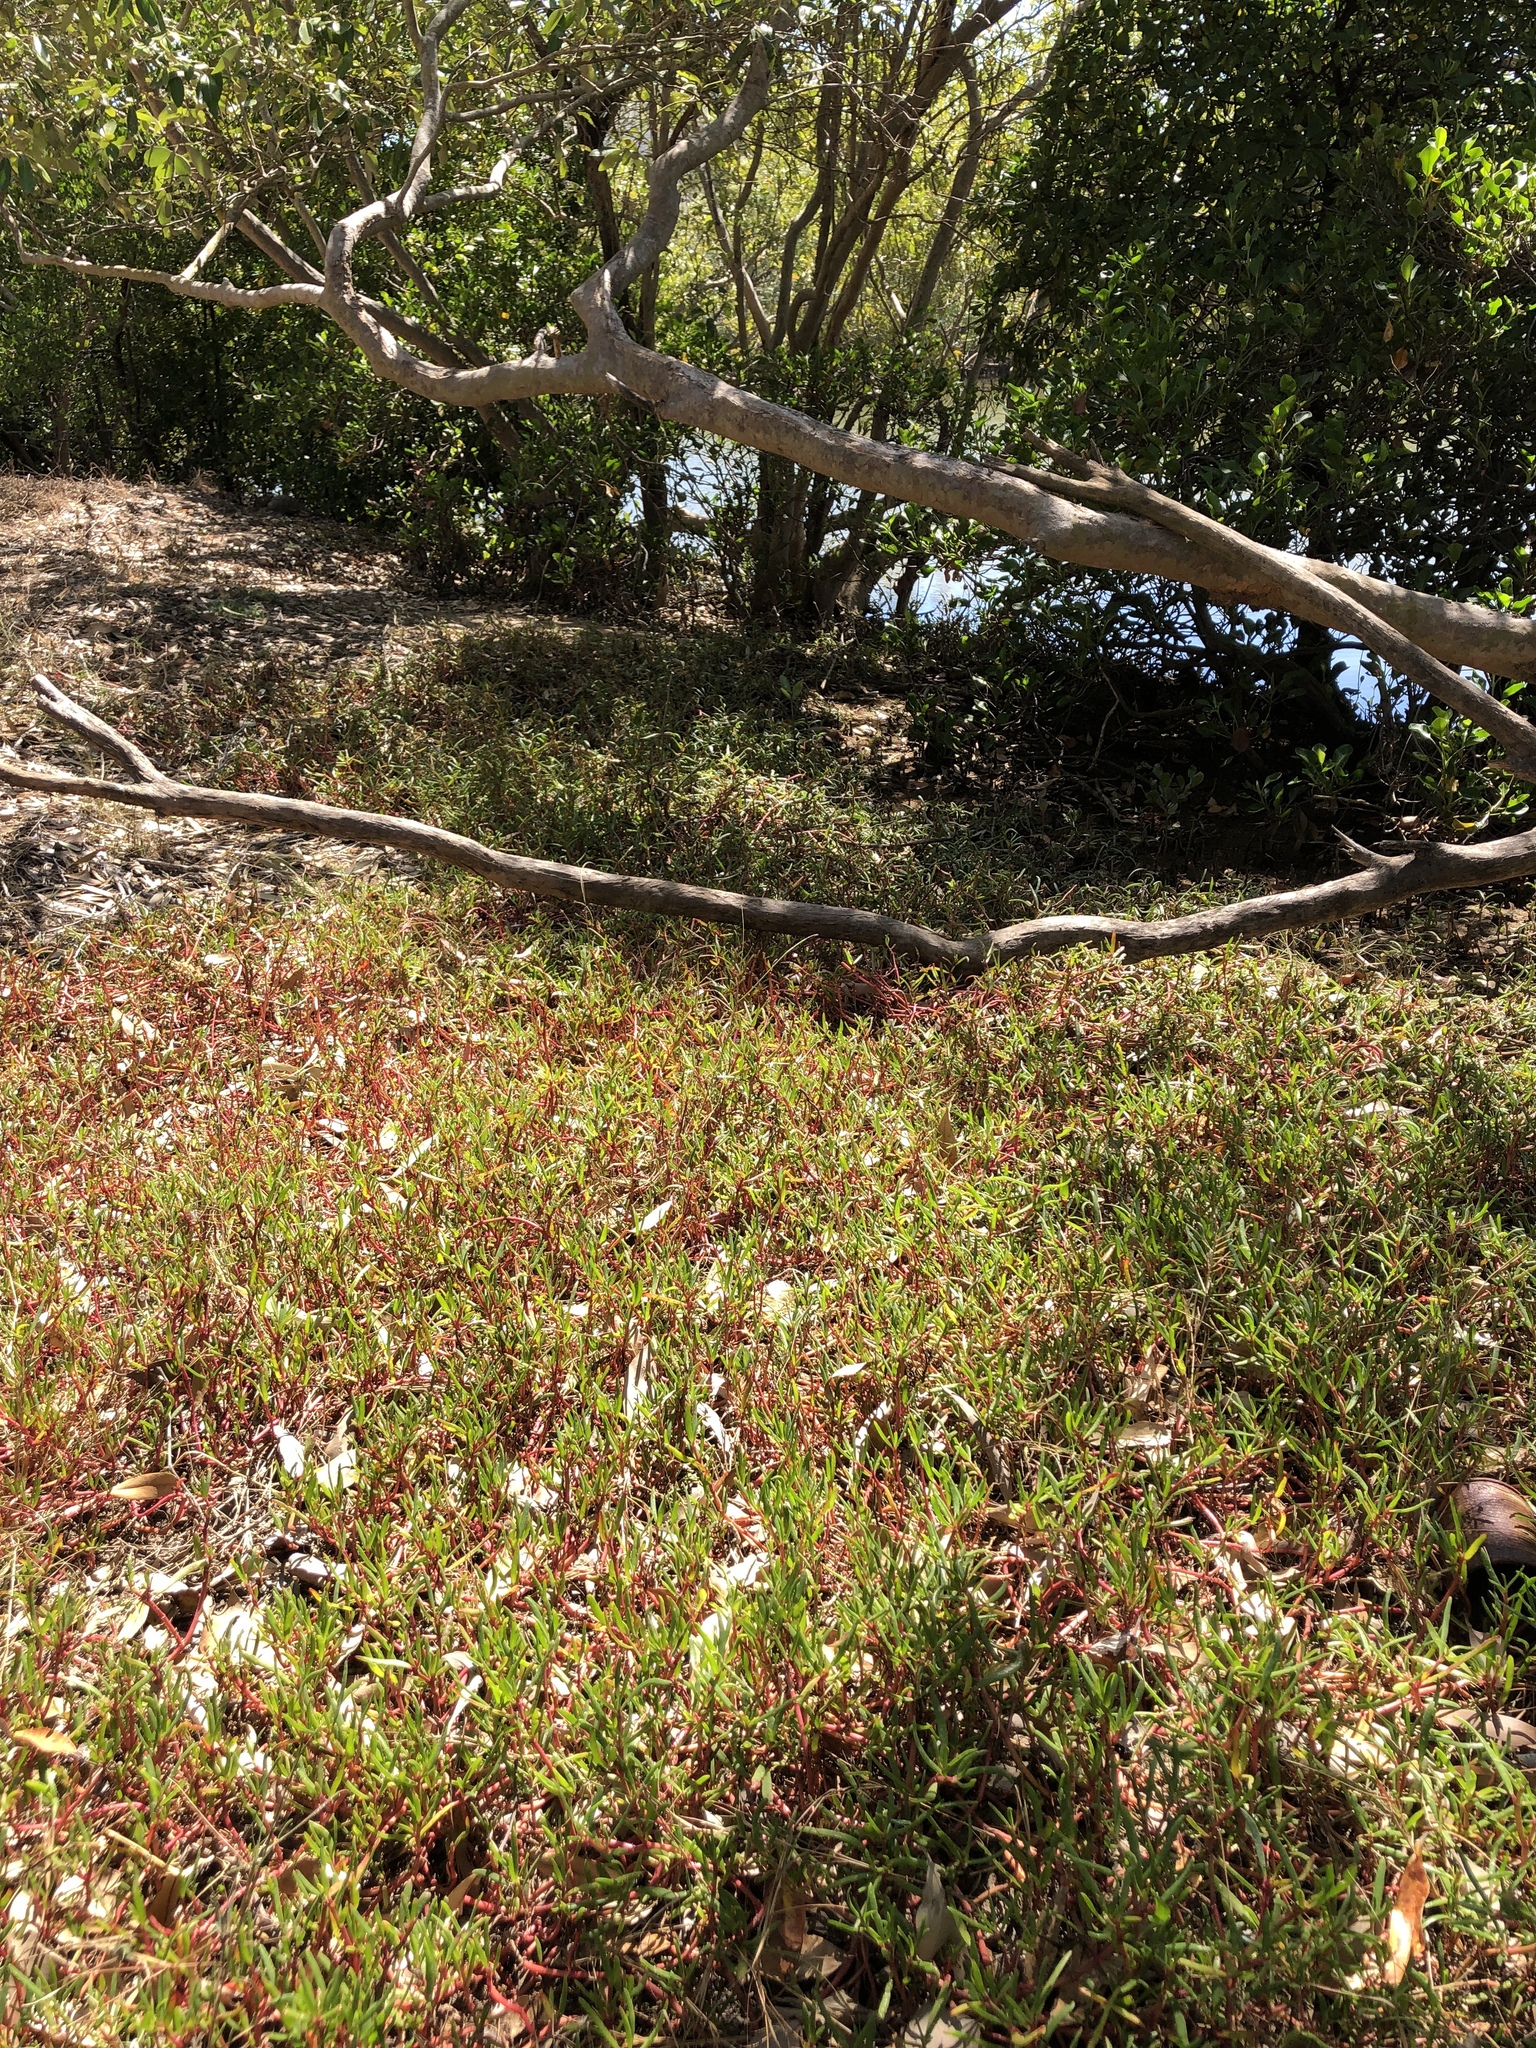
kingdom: Plantae
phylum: Tracheophyta
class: Magnoliopsida
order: Caryophyllales
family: Aizoaceae
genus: Sesuvium
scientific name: Sesuvium portulacastrum
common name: Sea-purslane
